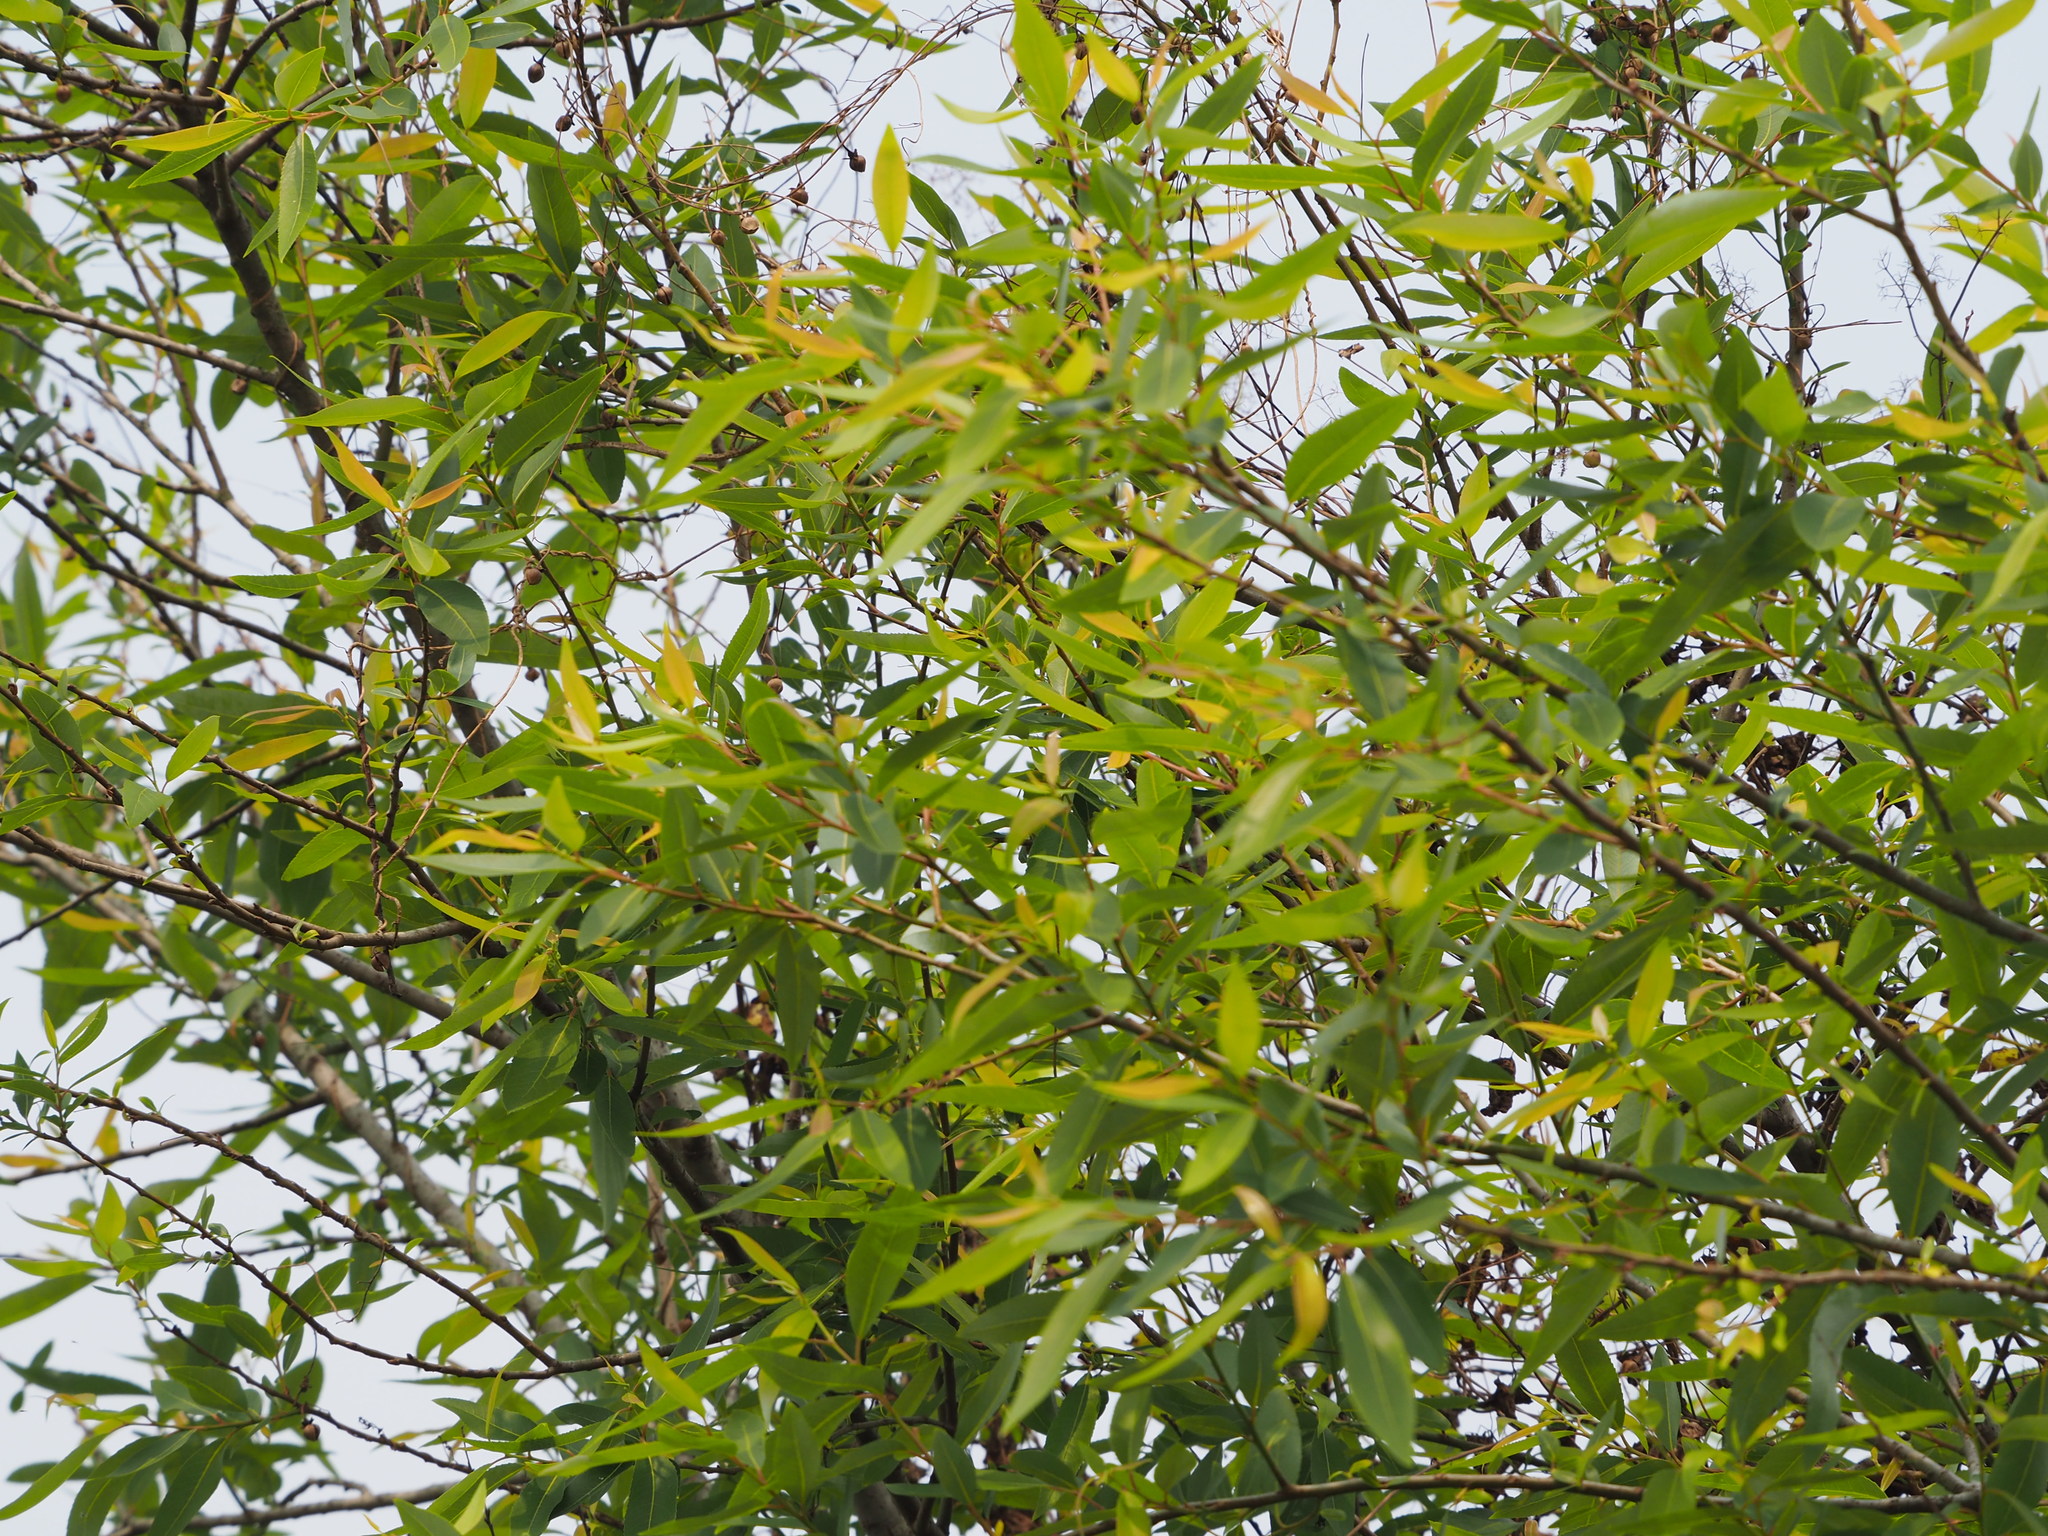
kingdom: Plantae
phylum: Tracheophyta
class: Magnoliopsida
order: Malpighiales
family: Salicaceae
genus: Salix
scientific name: Salix mesnyi
